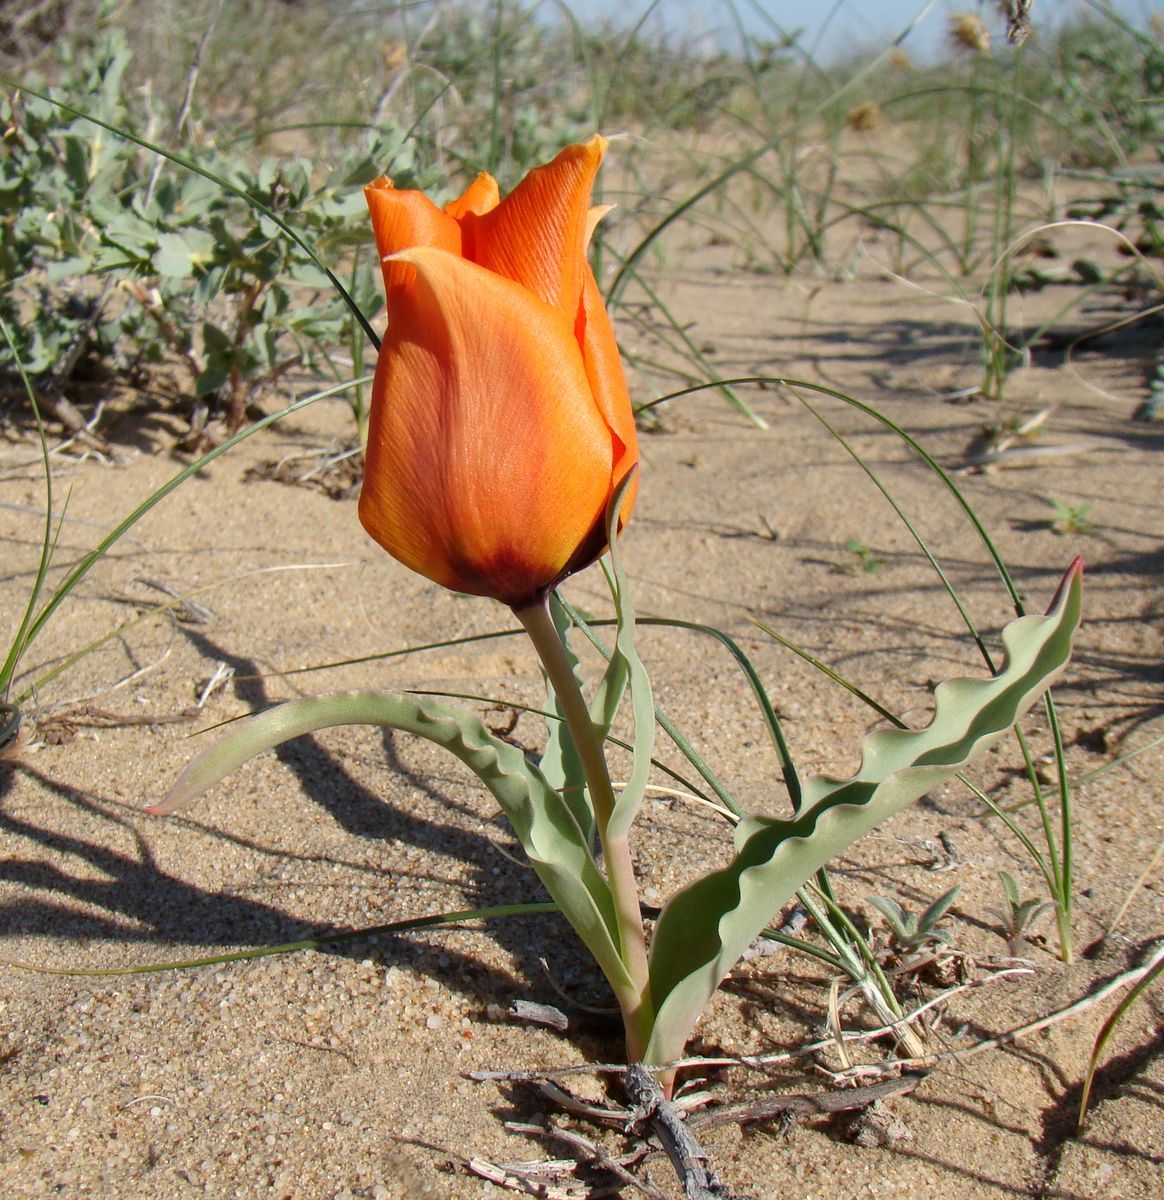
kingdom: Plantae
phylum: Tracheophyta
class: Liliopsida
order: Liliales
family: Liliaceae
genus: Tulipa
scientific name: Tulipa borszczowii
